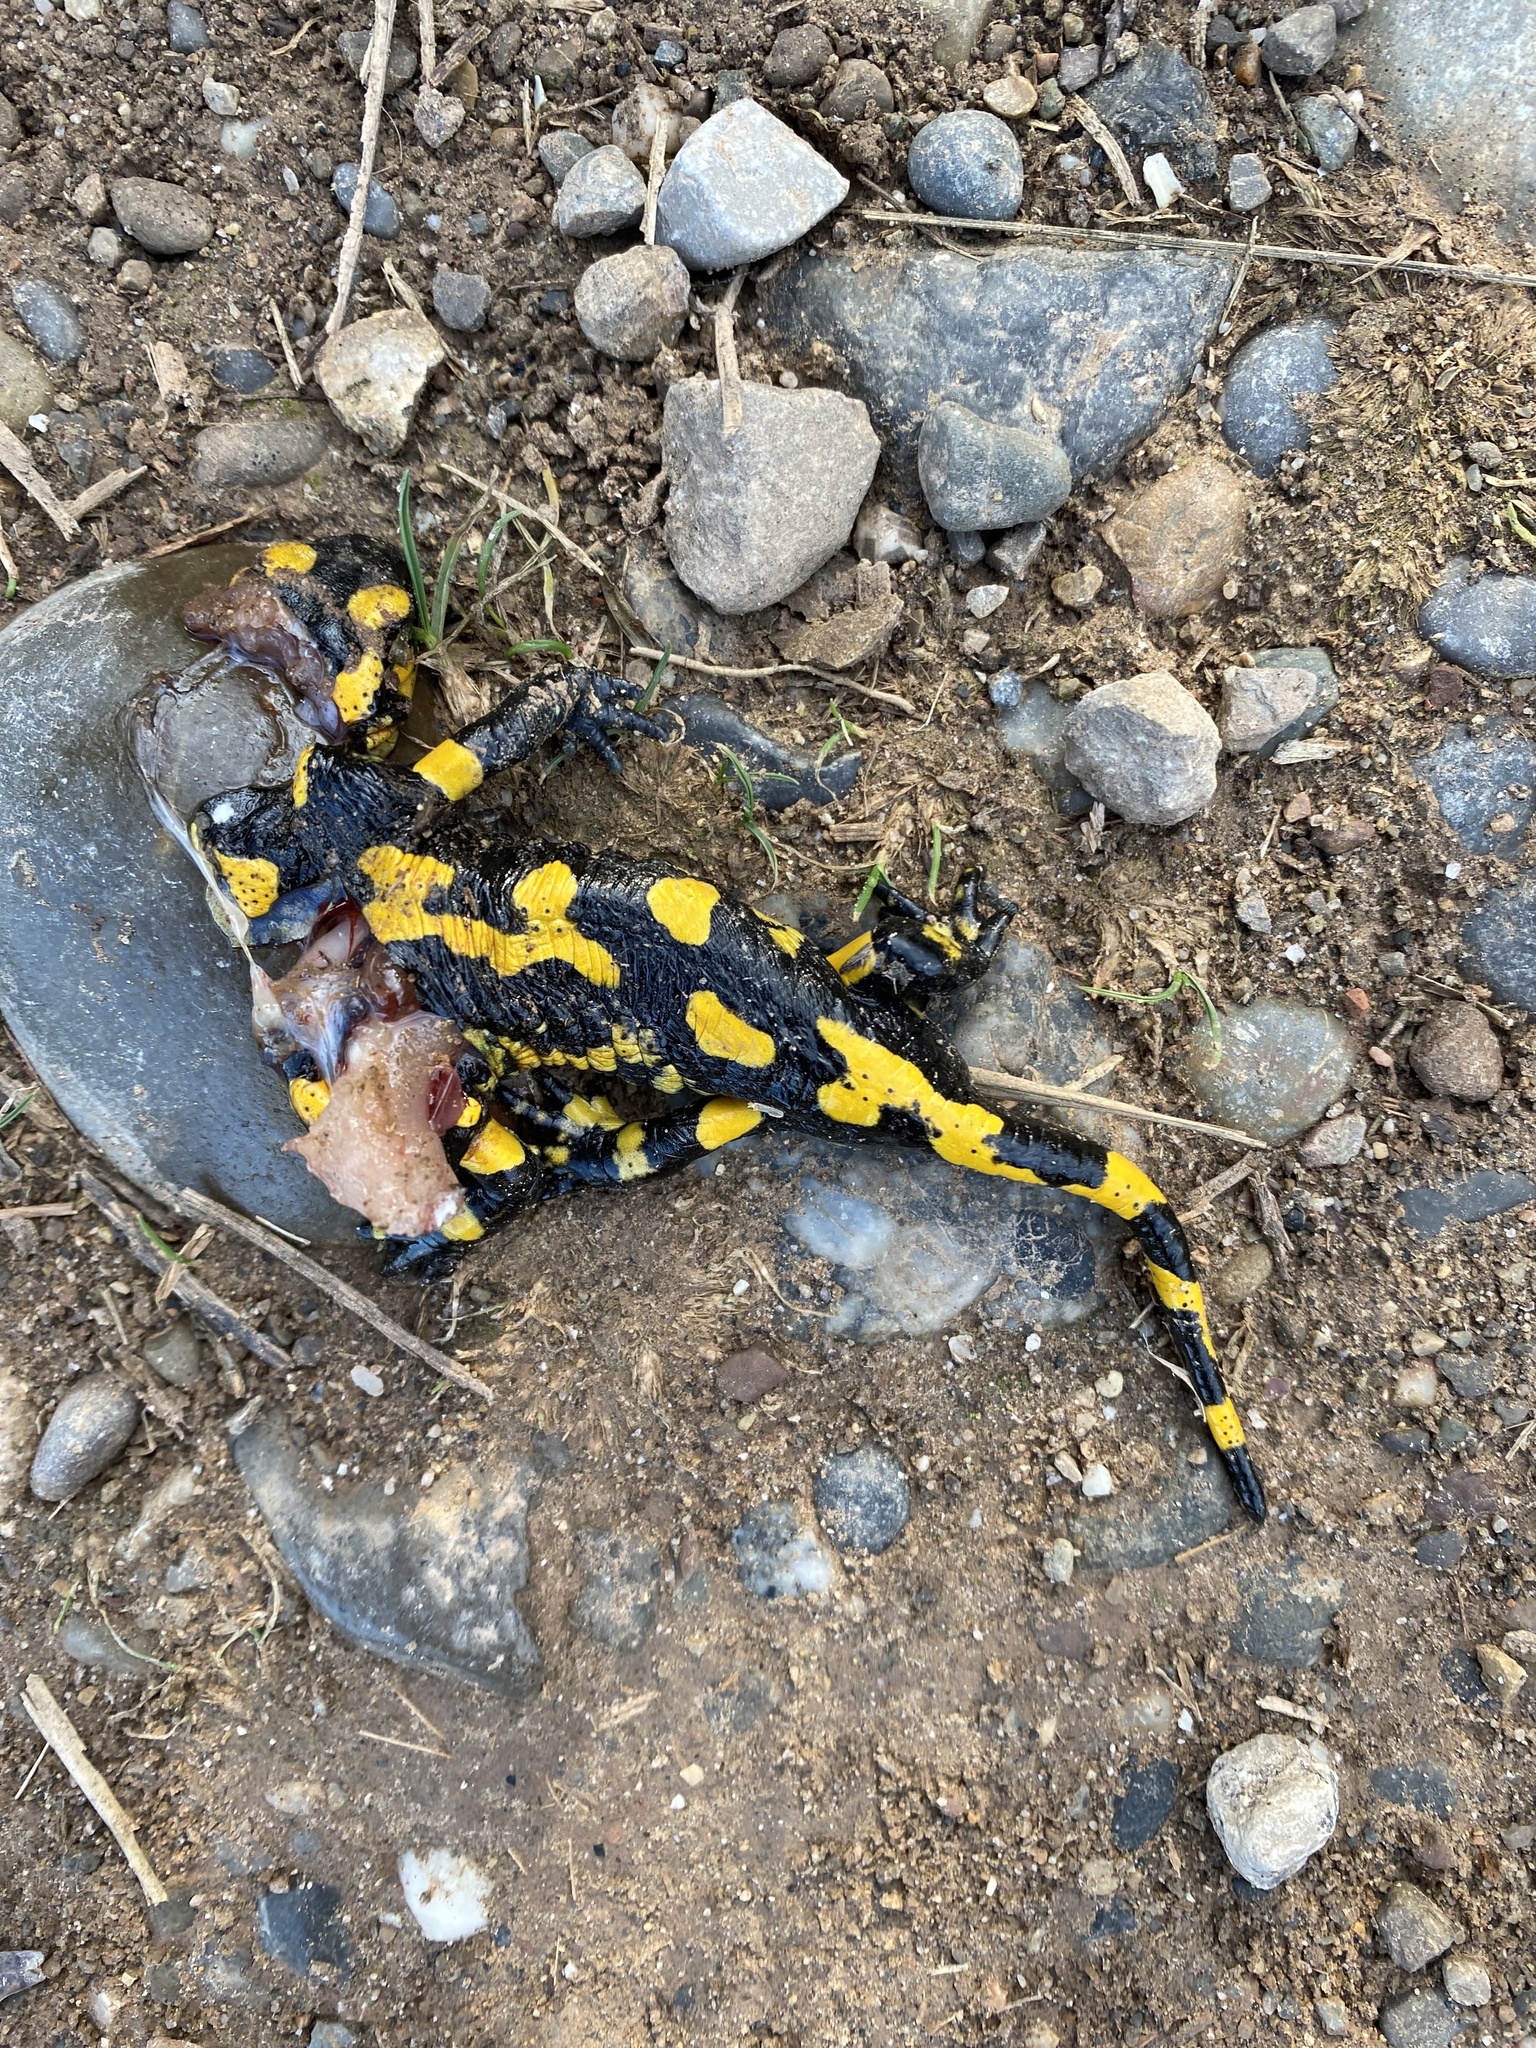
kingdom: Animalia
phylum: Chordata
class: Amphibia
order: Caudata
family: Salamandridae
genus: Salamandra
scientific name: Salamandra salamandra
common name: Fire salamander
